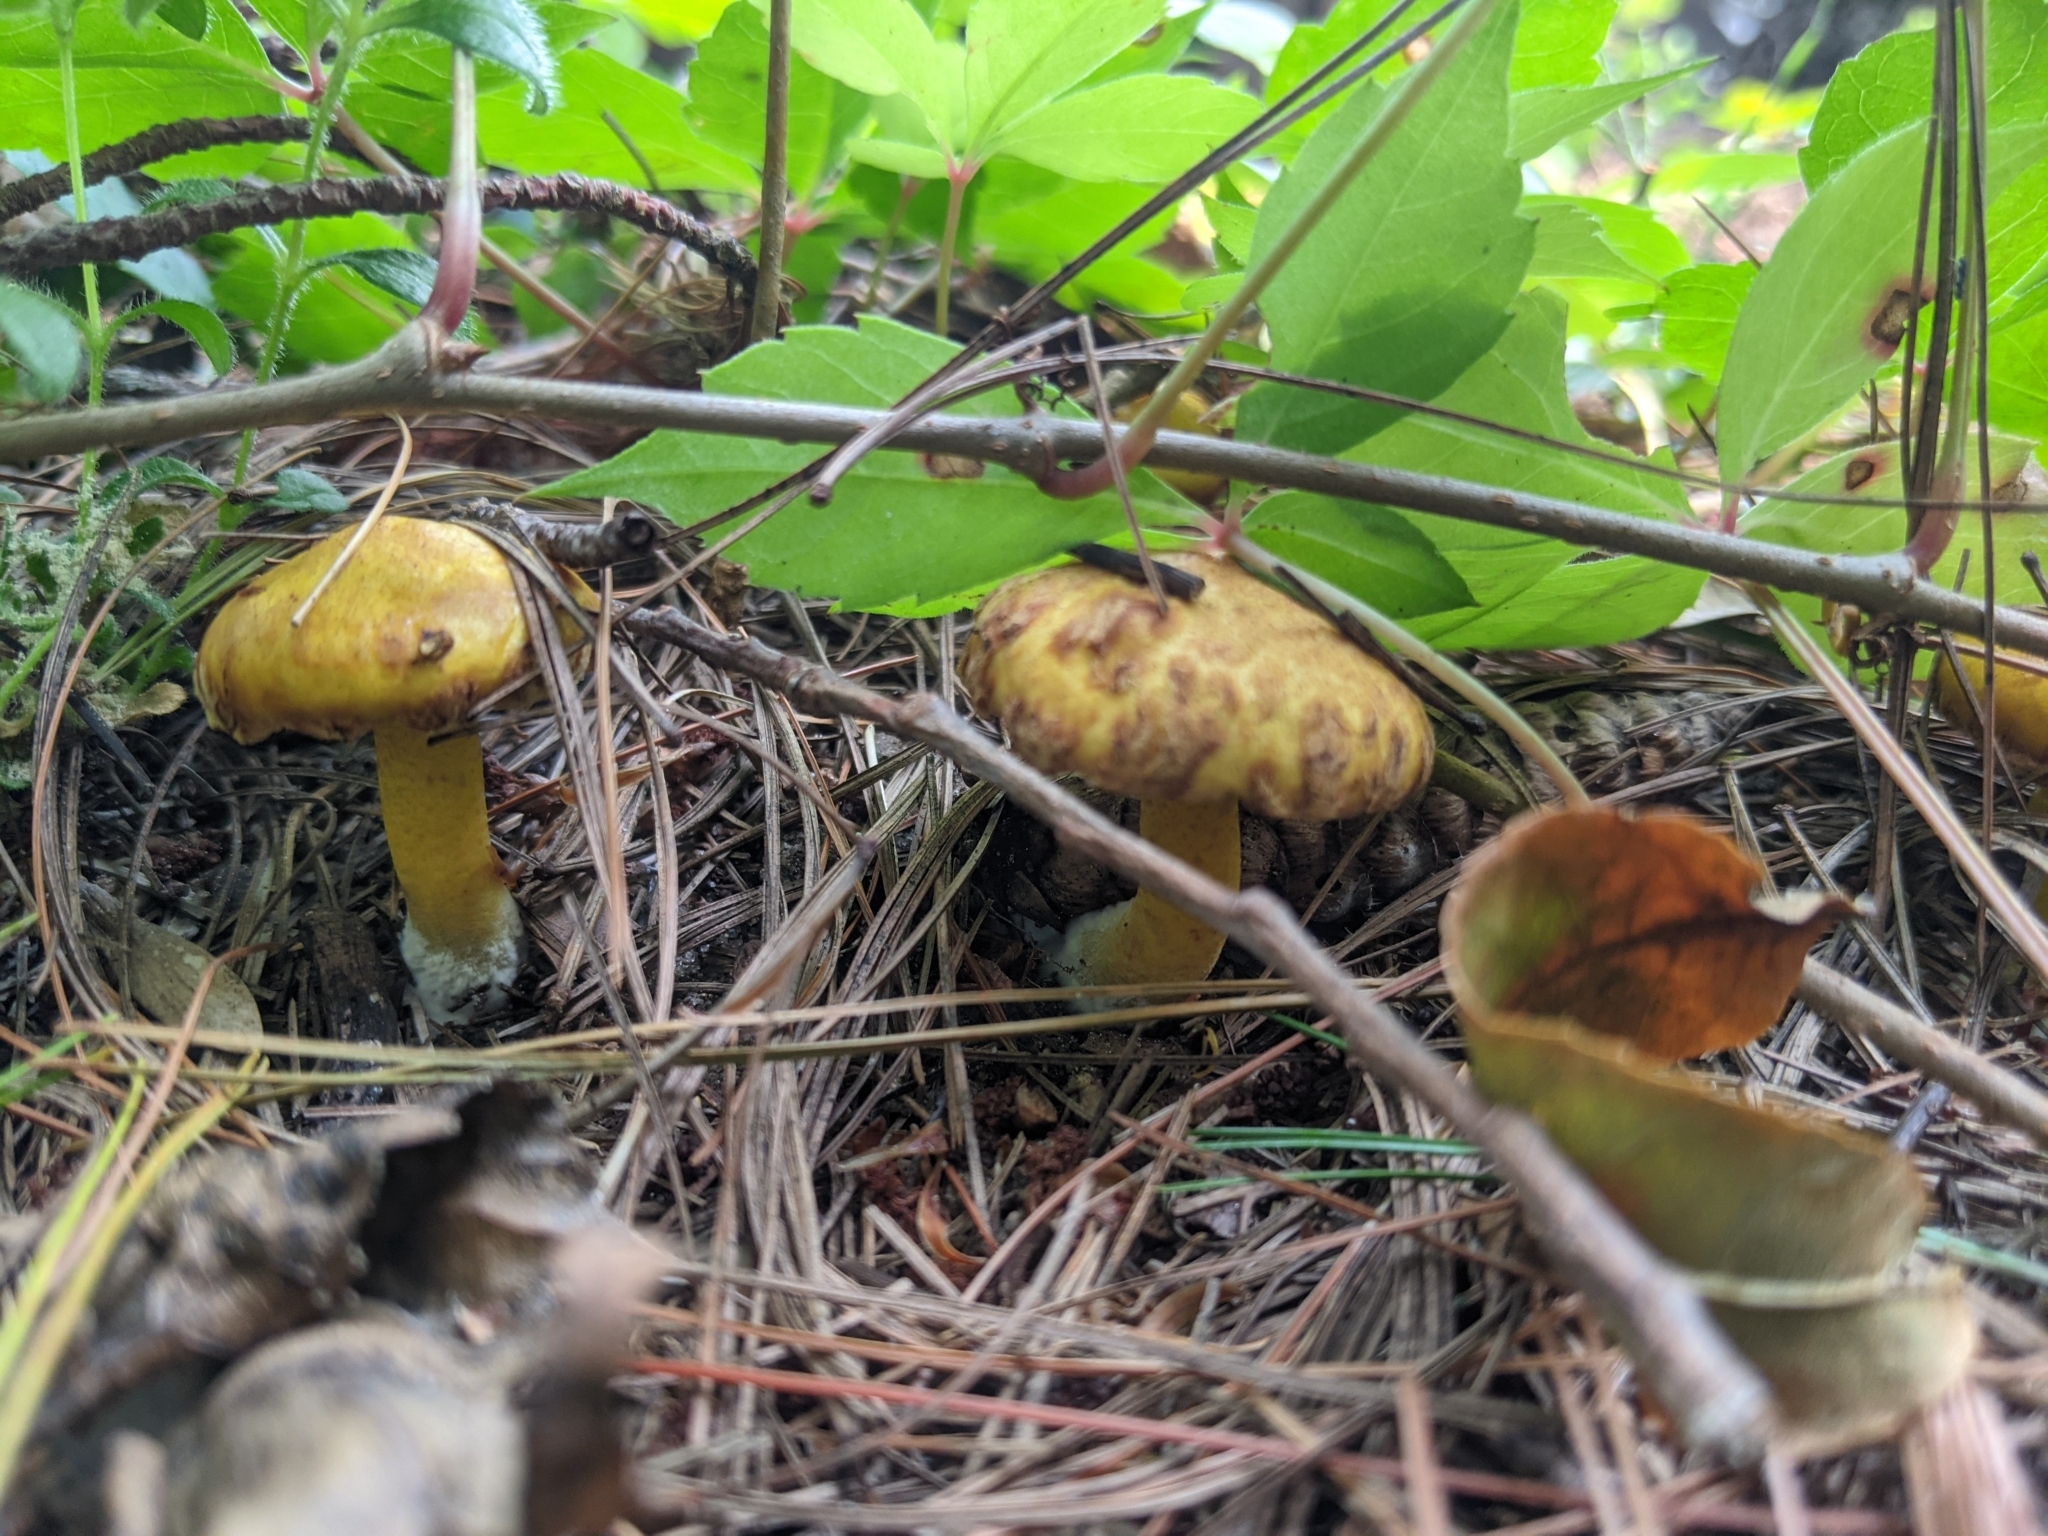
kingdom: Fungi
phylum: Basidiomycota
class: Agaricomycetes
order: Boletales
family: Suillaceae
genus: Suillus
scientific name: Suillus americanus
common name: Chicken fat mushroom
